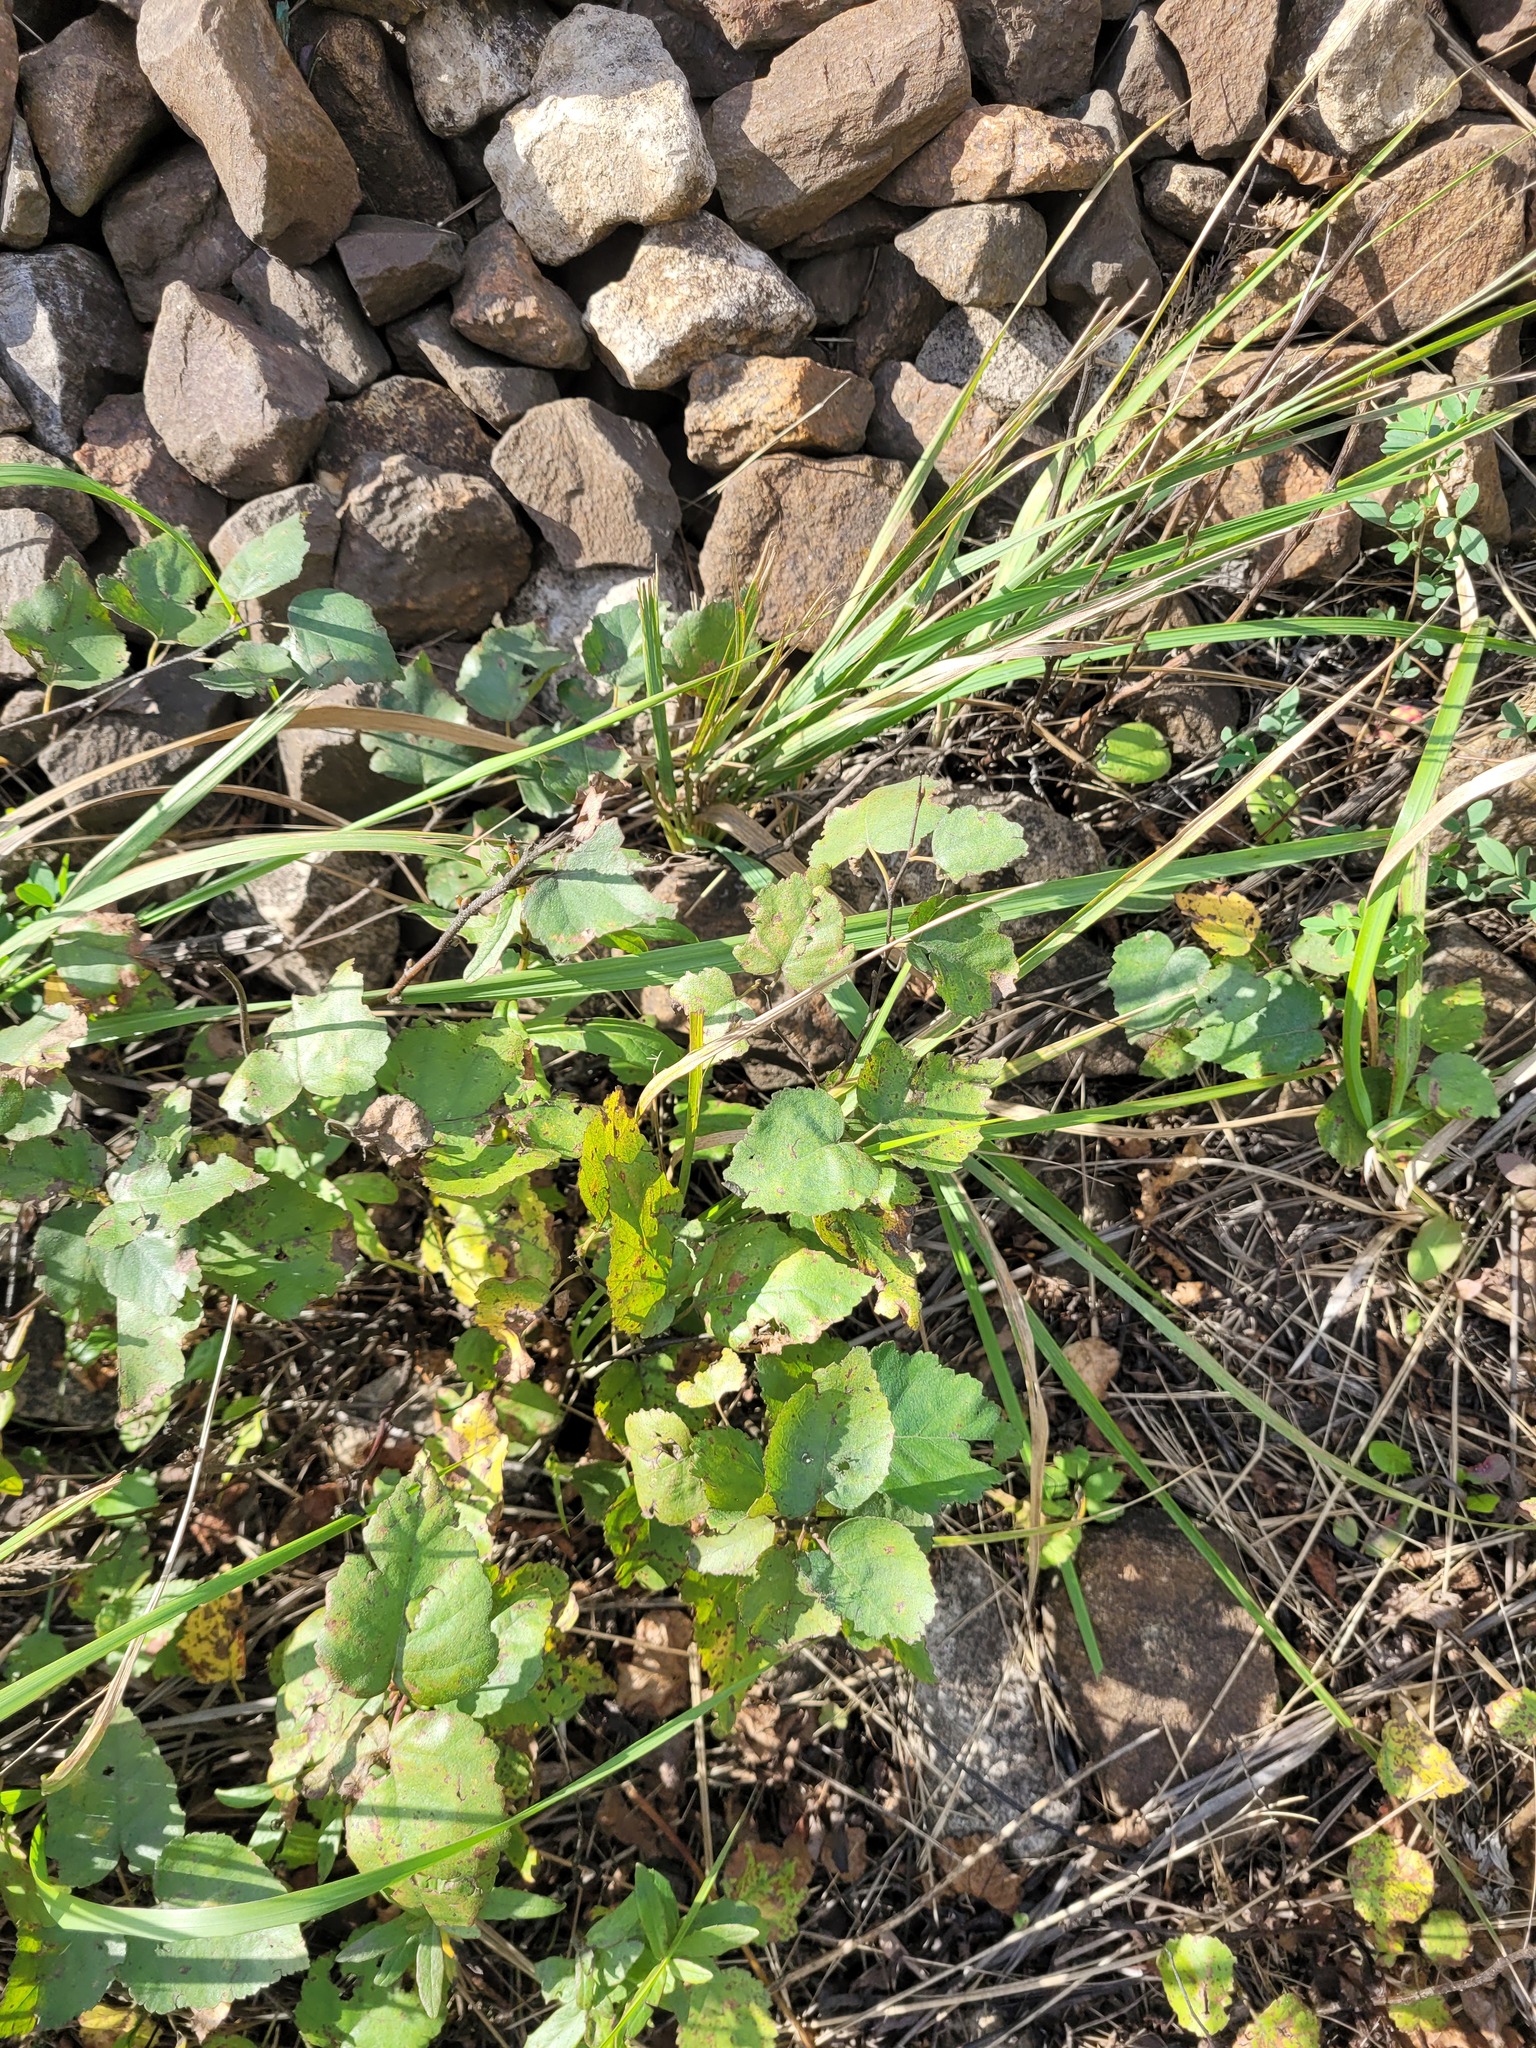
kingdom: Plantae
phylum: Tracheophyta
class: Magnoliopsida
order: Fagales
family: Betulaceae
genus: Betula
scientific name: Betula pendula
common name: Silver birch
